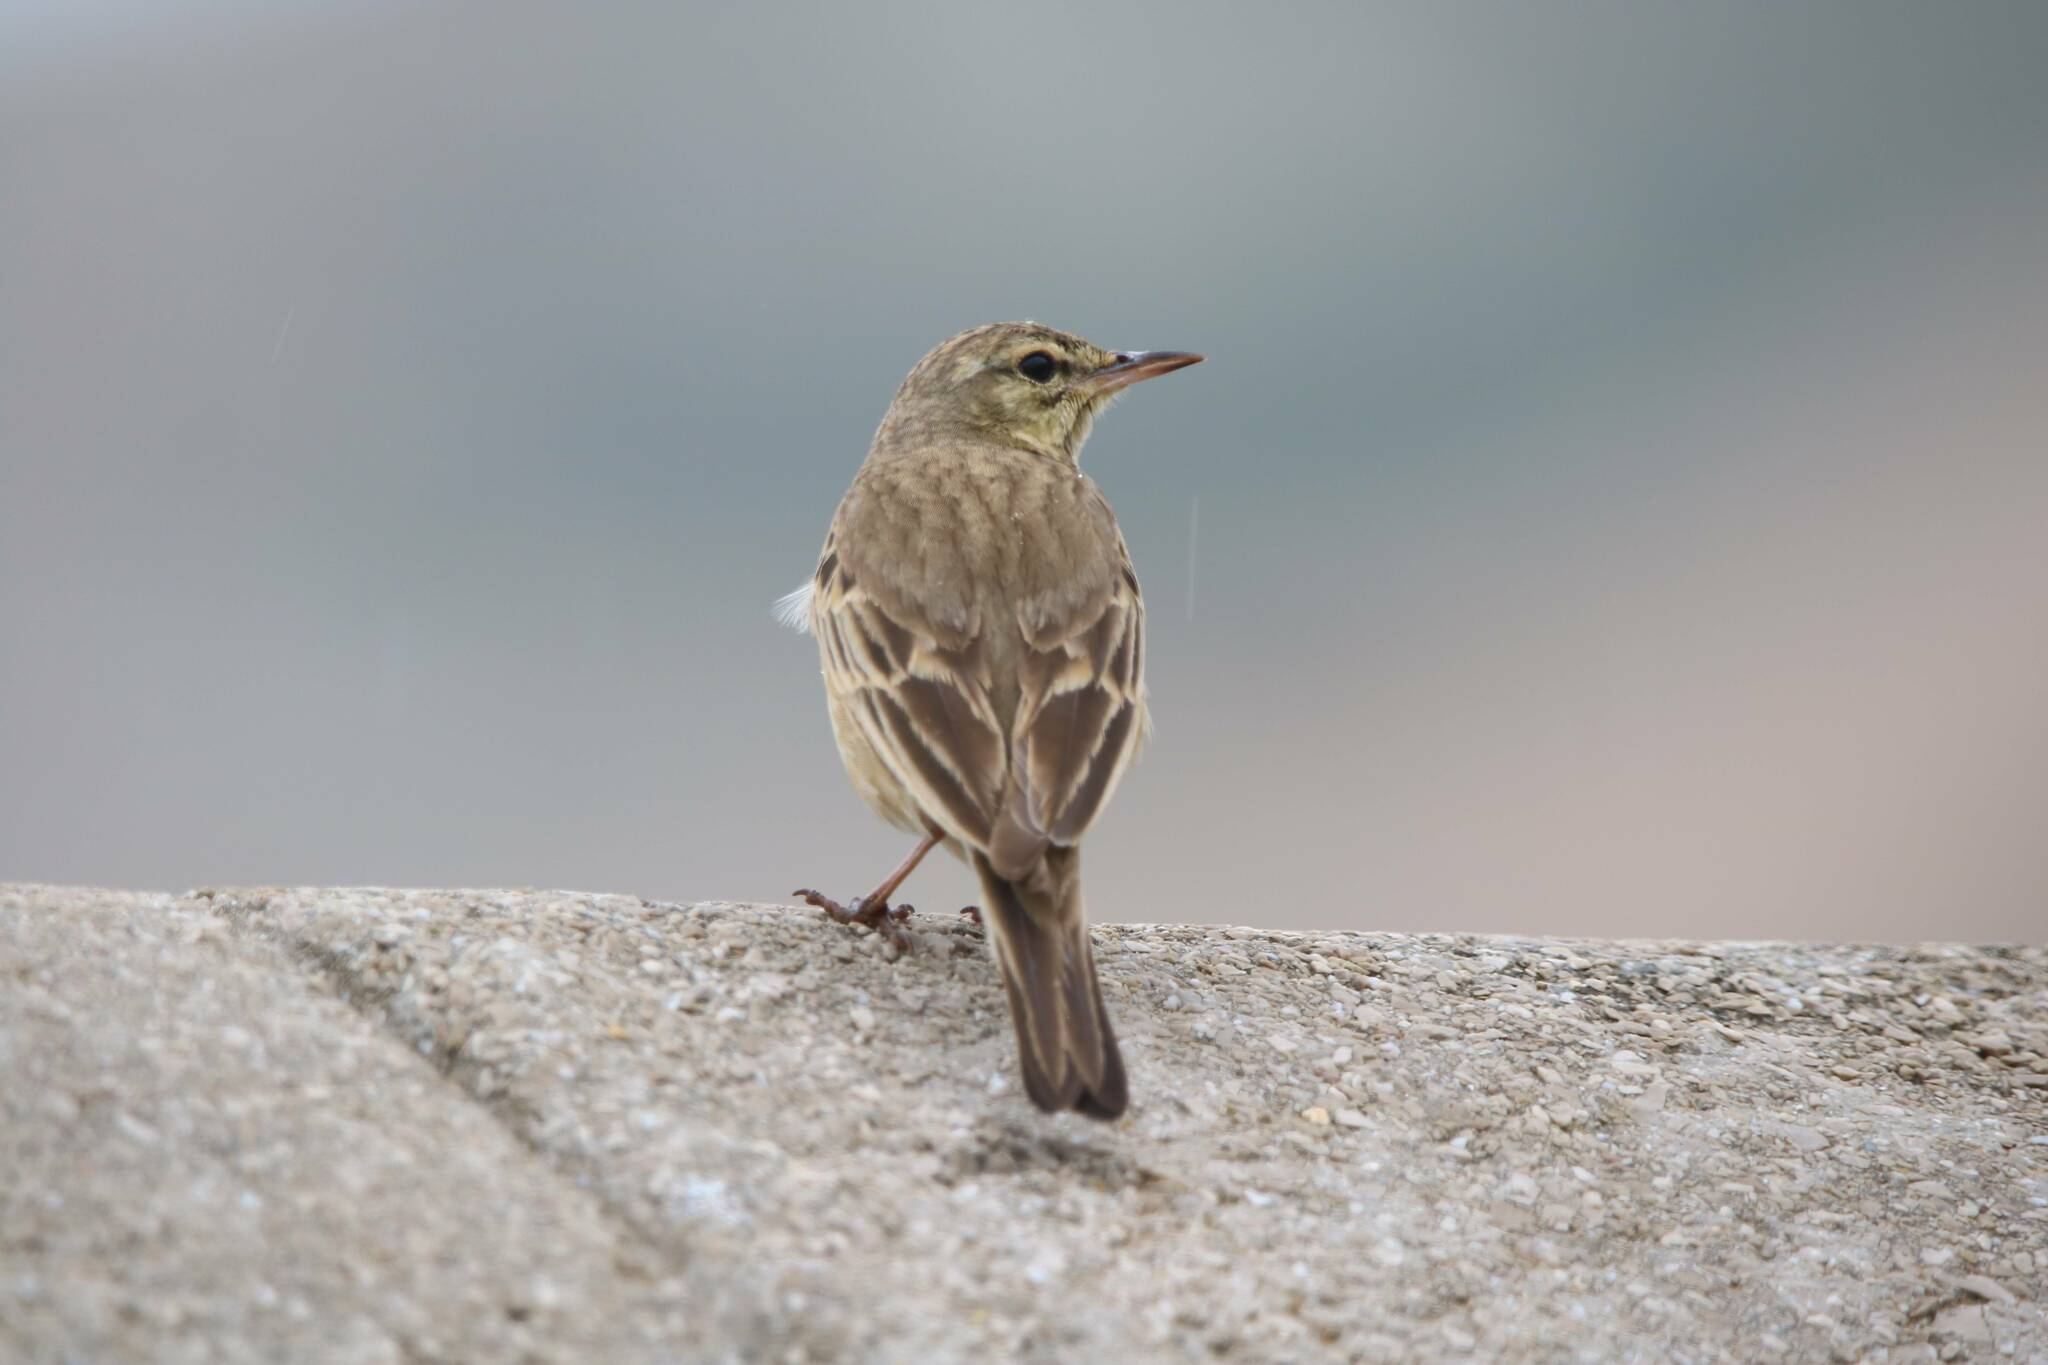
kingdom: Animalia
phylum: Chordata
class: Aves
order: Passeriformes
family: Motacillidae
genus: Anthus
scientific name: Anthus campestris
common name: Tawny pipit
